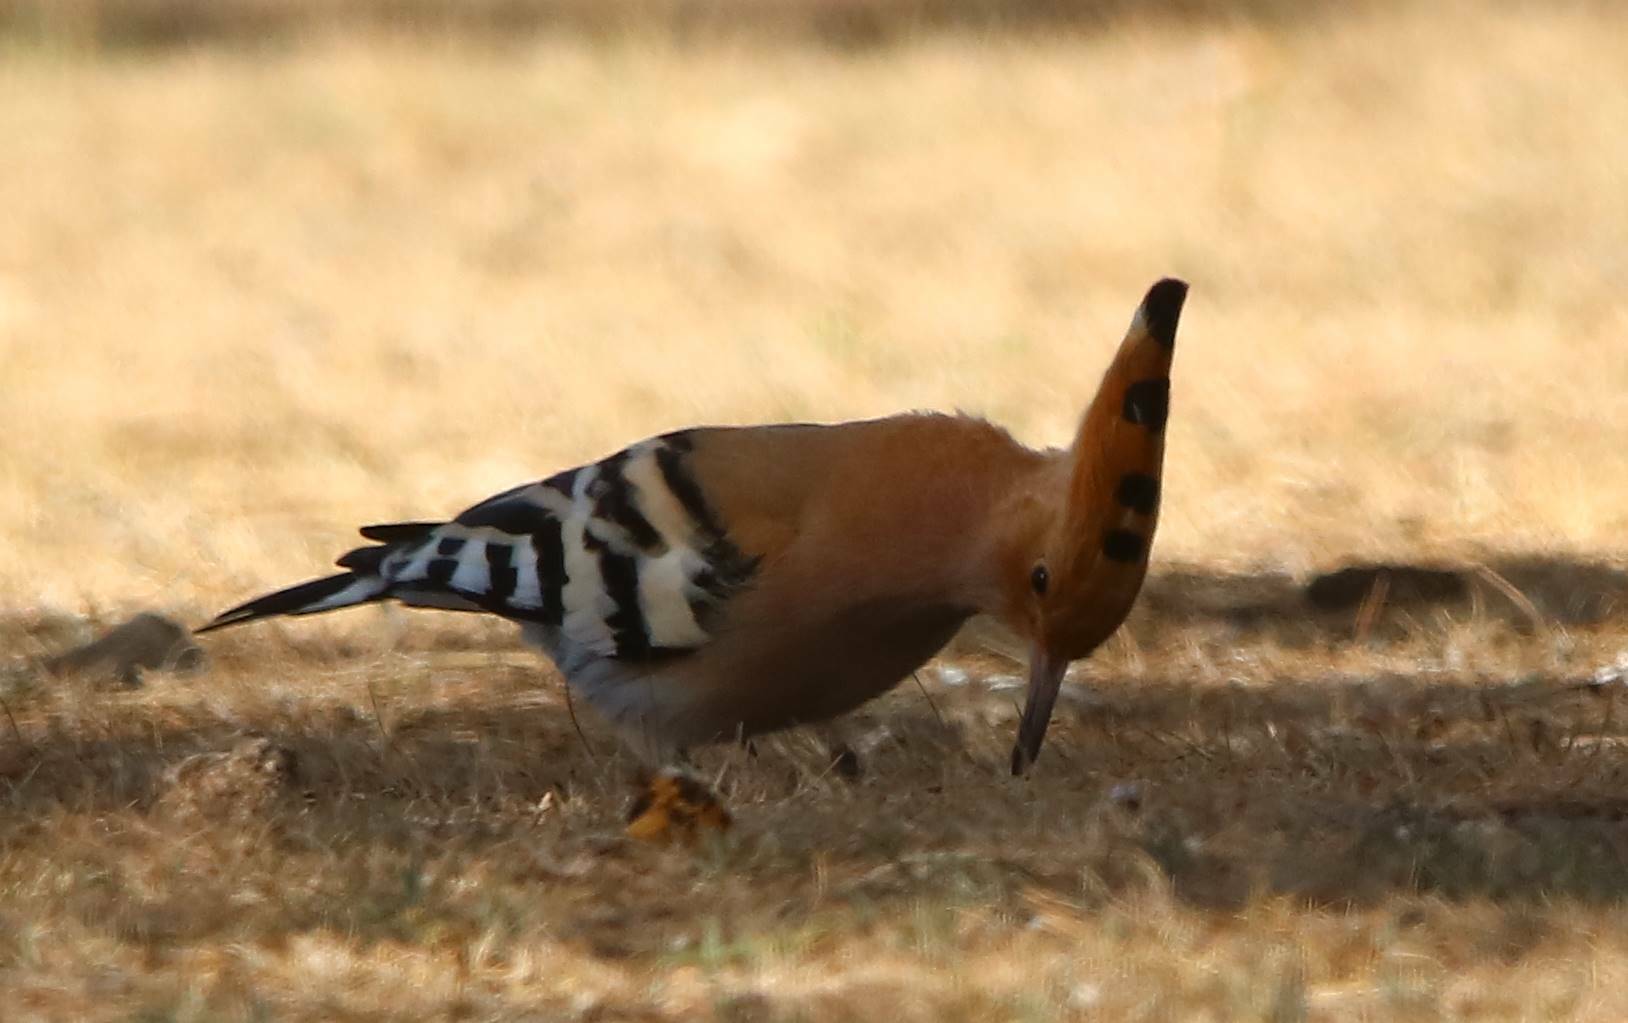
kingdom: Animalia
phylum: Chordata
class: Aves
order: Bucerotiformes
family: Upupidae
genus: Upupa
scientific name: Upupa epops
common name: Eurasian hoopoe
